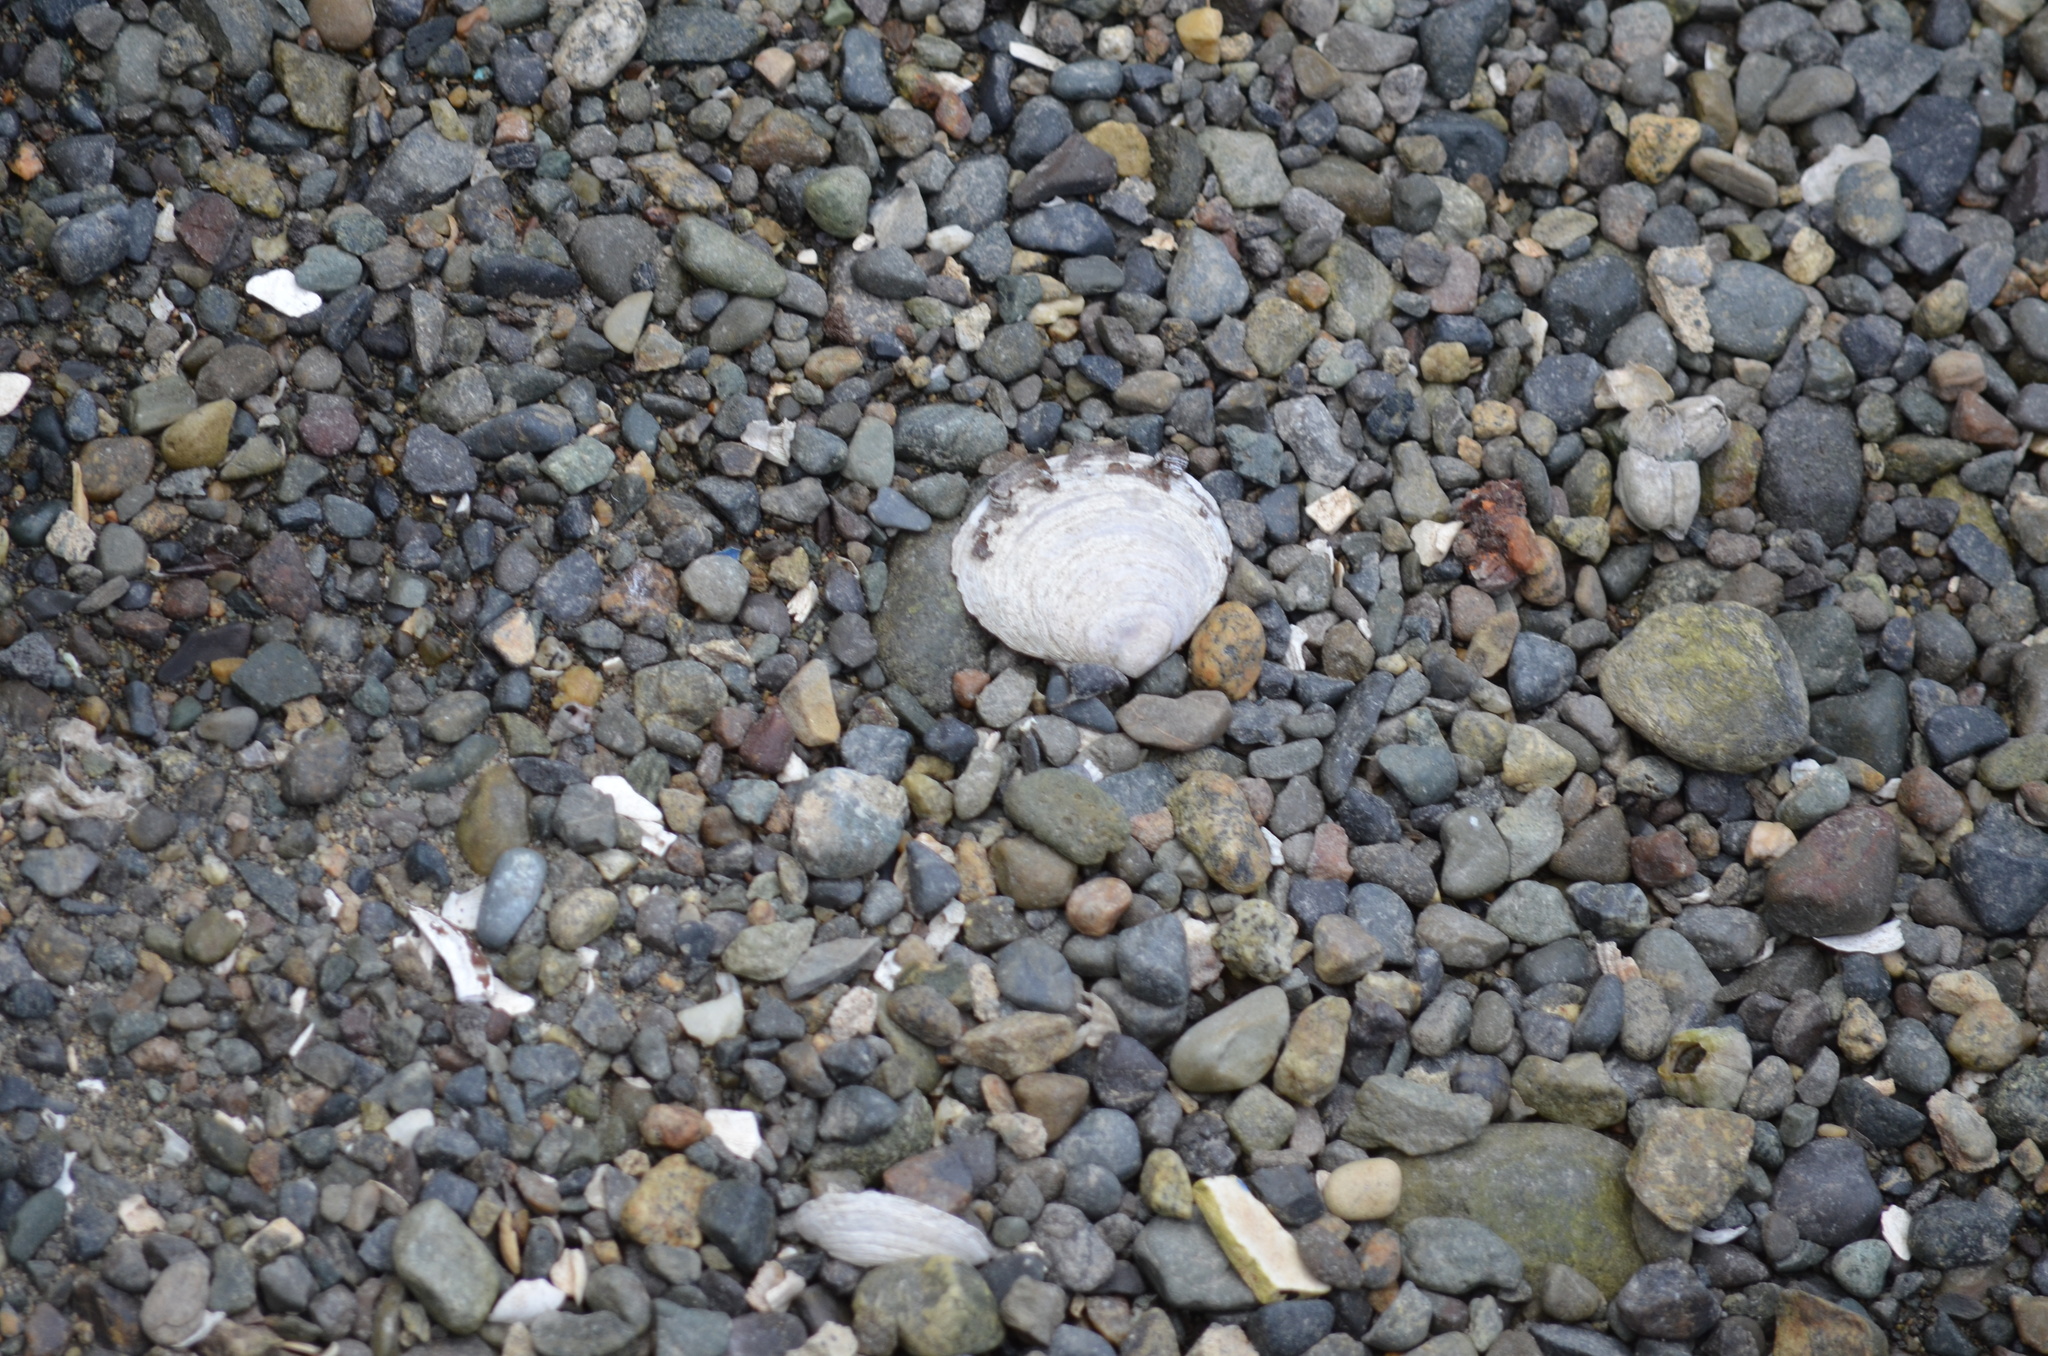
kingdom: Animalia
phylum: Mollusca
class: Bivalvia
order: Cardiida
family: Psammobiidae
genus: Nuttallia
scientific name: Nuttallia obscurata
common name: Purple mahogany-clam
